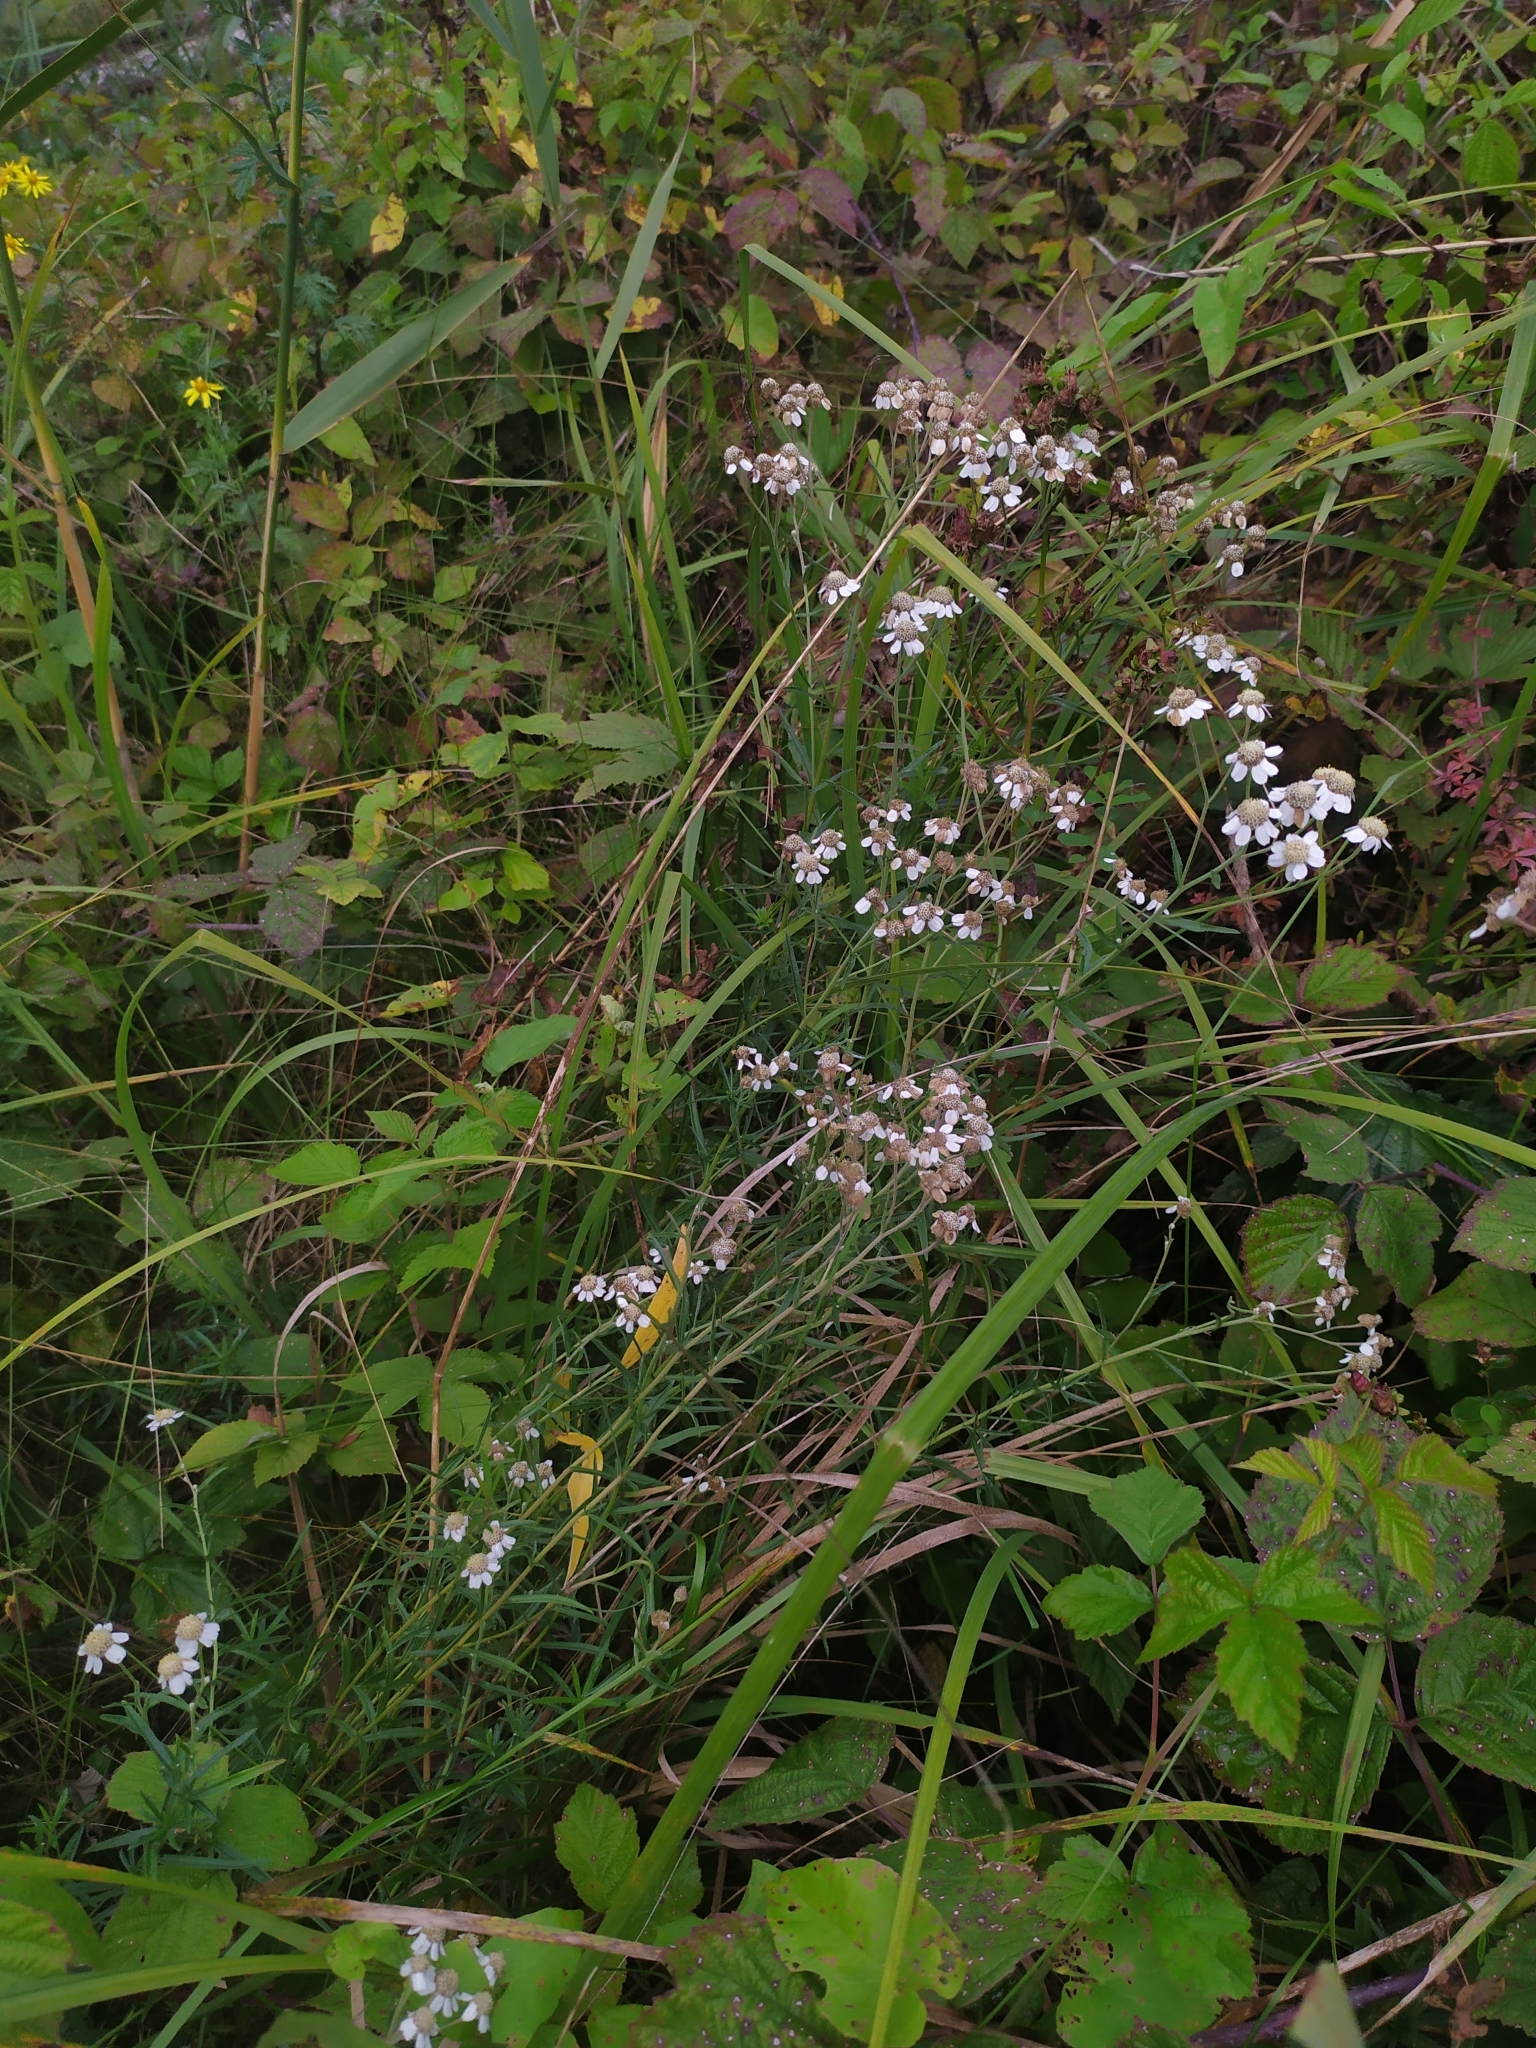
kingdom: Plantae
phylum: Tracheophyta
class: Magnoliopsida
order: Asterales
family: Asteraceae
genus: Achillea
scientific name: Achillea ptarmica
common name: Sneezeweed
